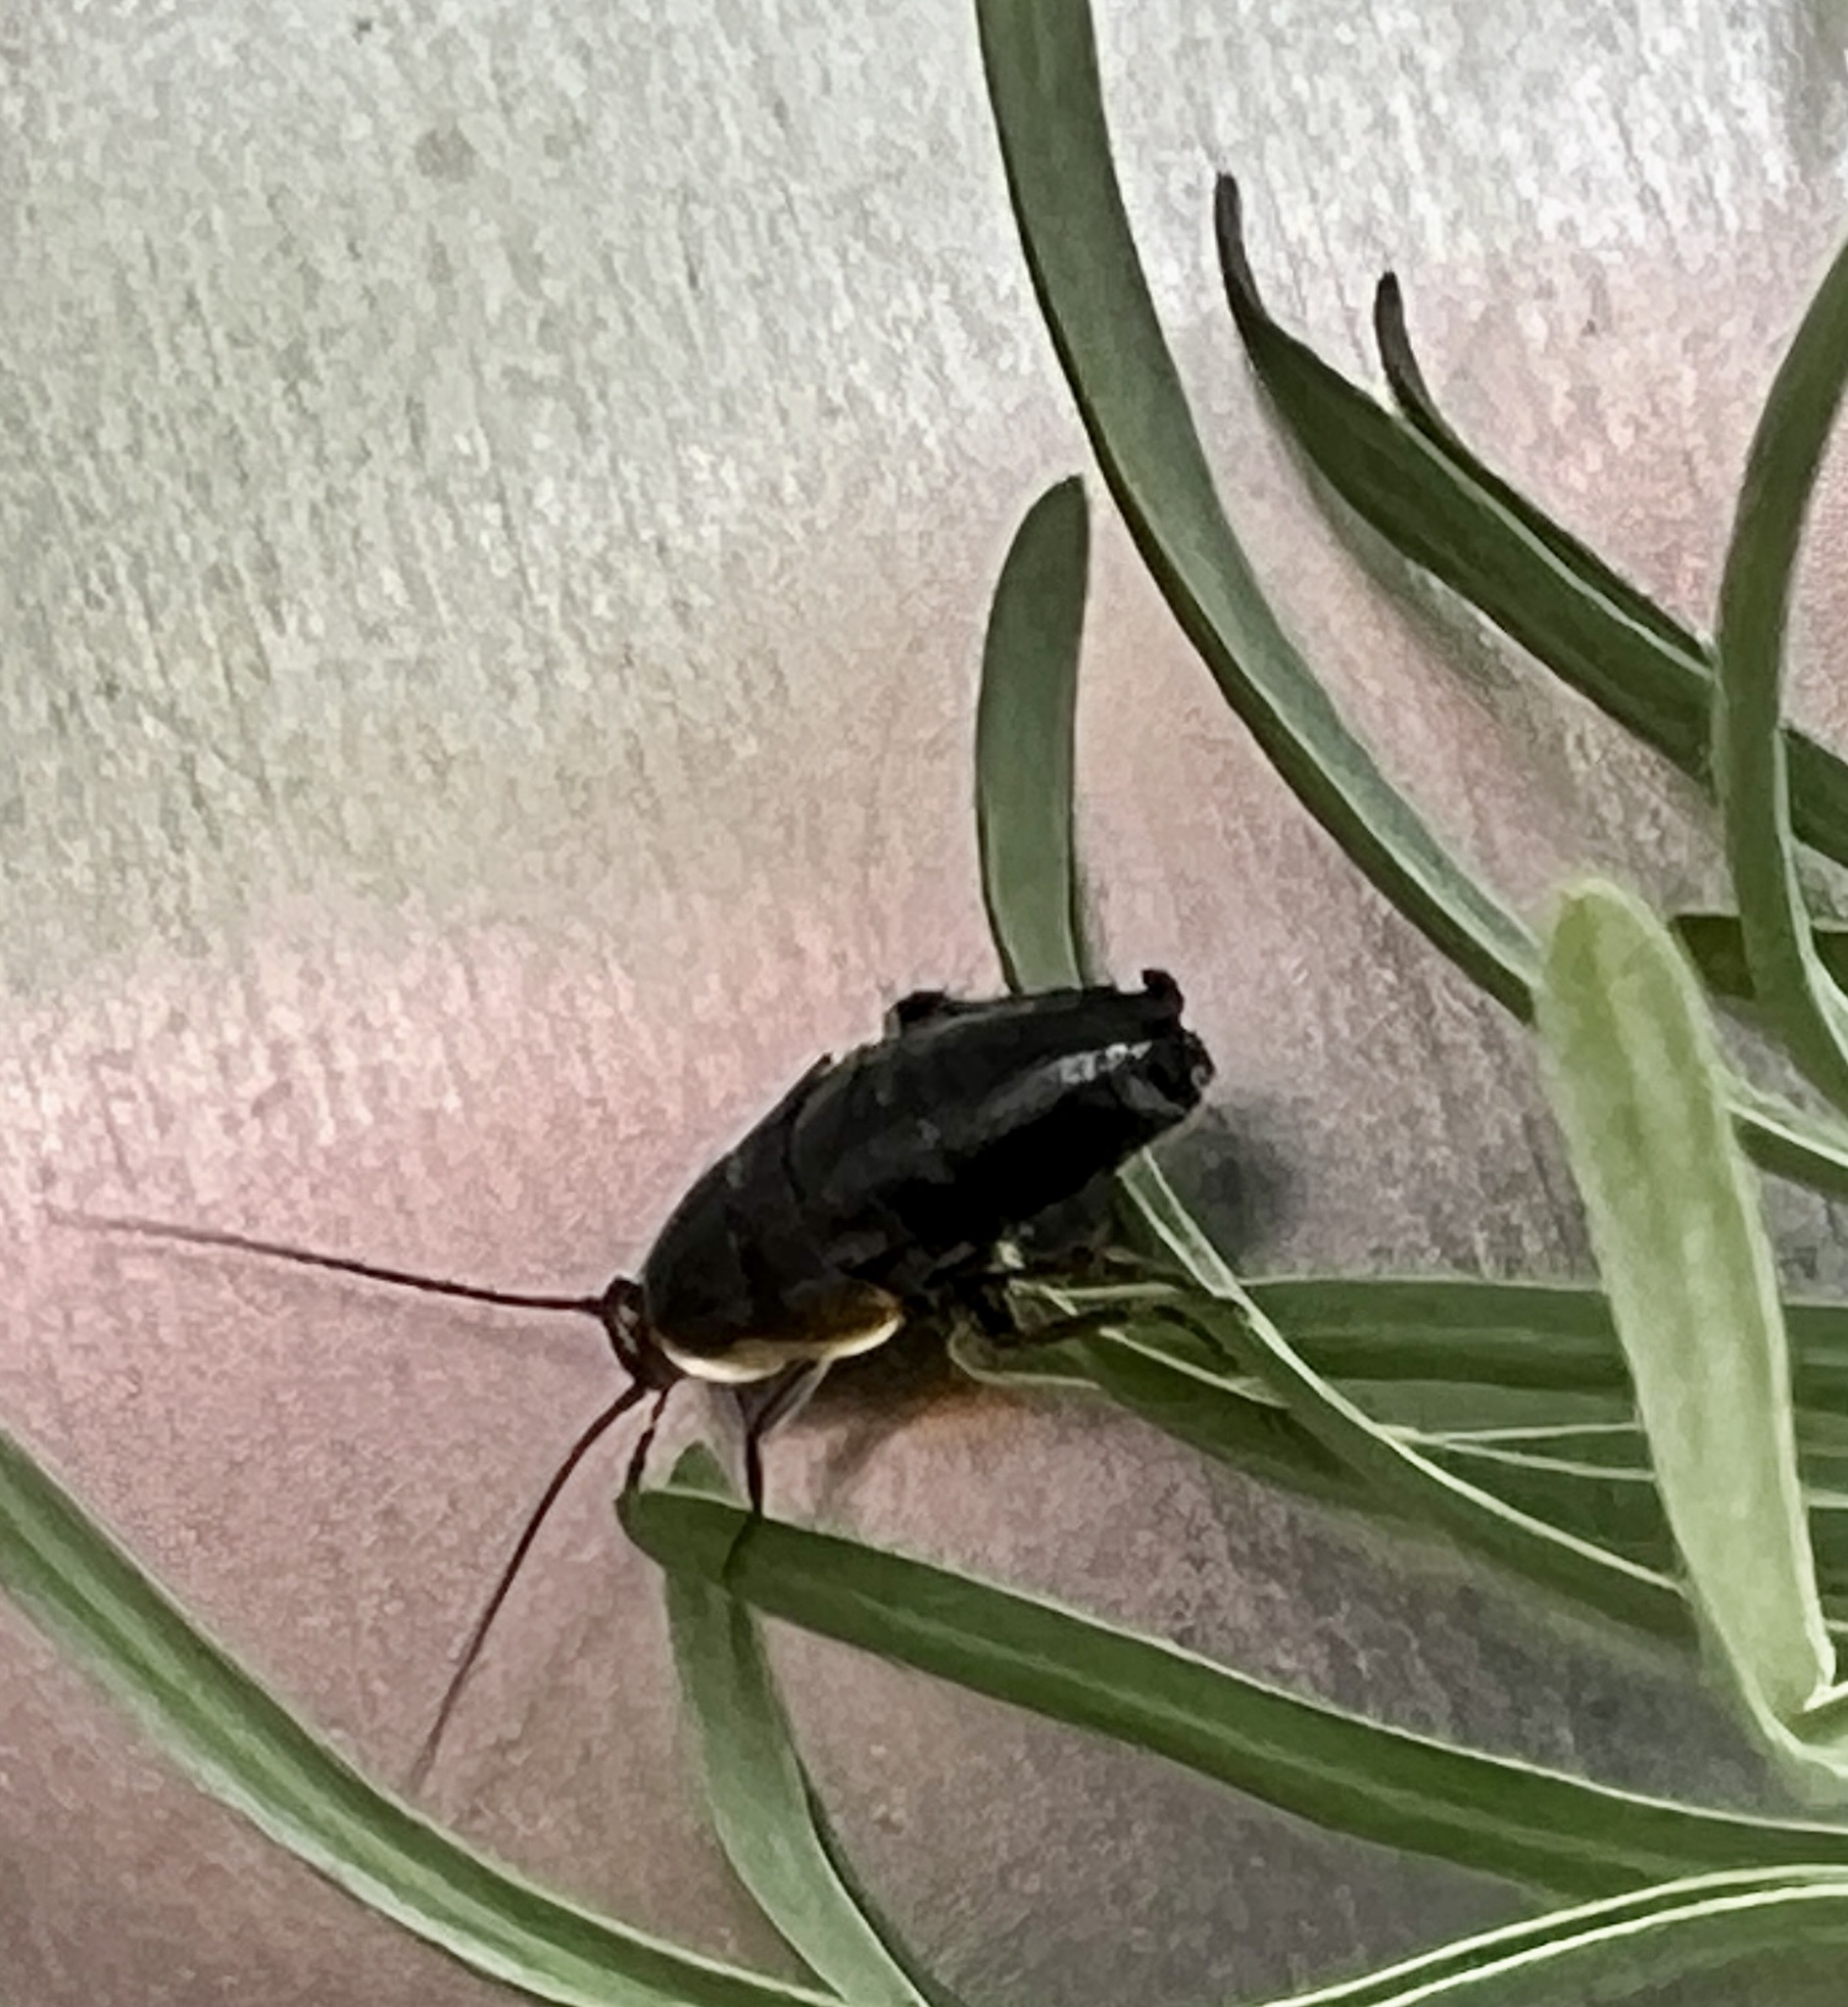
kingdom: Animalia
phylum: Arthropoda
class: Insecta
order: Blattodea
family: Ectobiidae
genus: Phyllodromica
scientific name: Phyllodromica maculata
